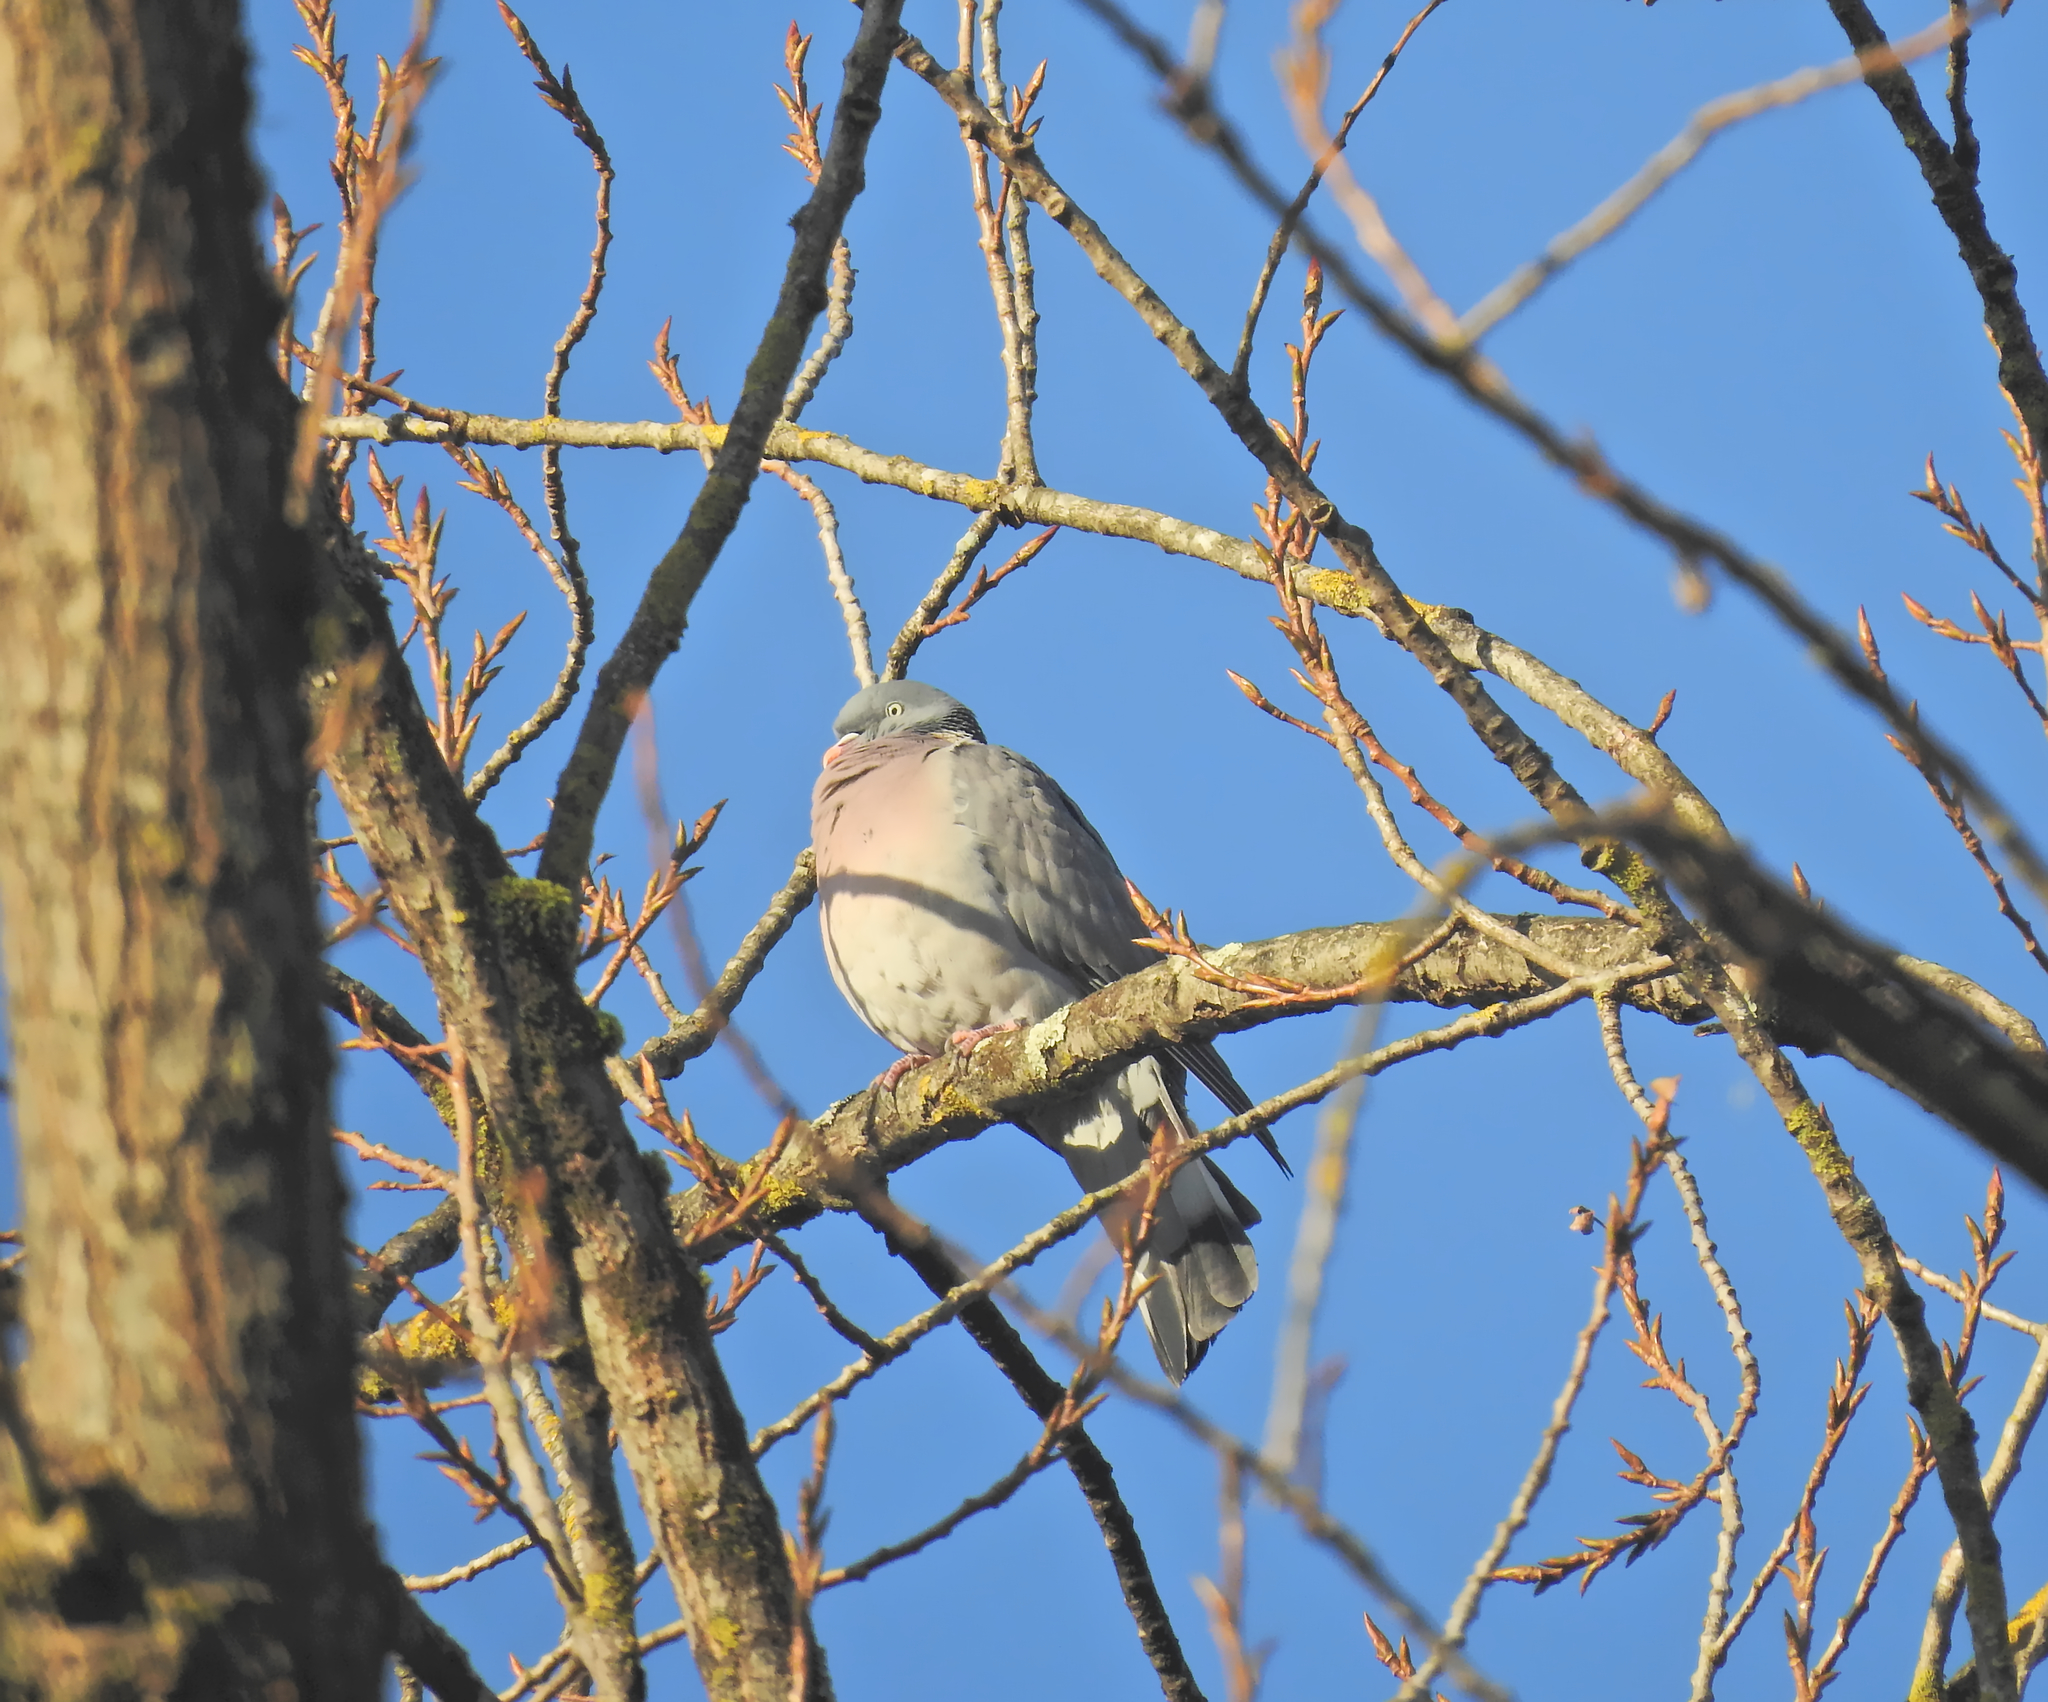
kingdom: Animalia
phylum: Chordata
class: Aves
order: Columbiformes
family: Columbidae
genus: Columba
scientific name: Columba palumbus
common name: Common wood pigeon
